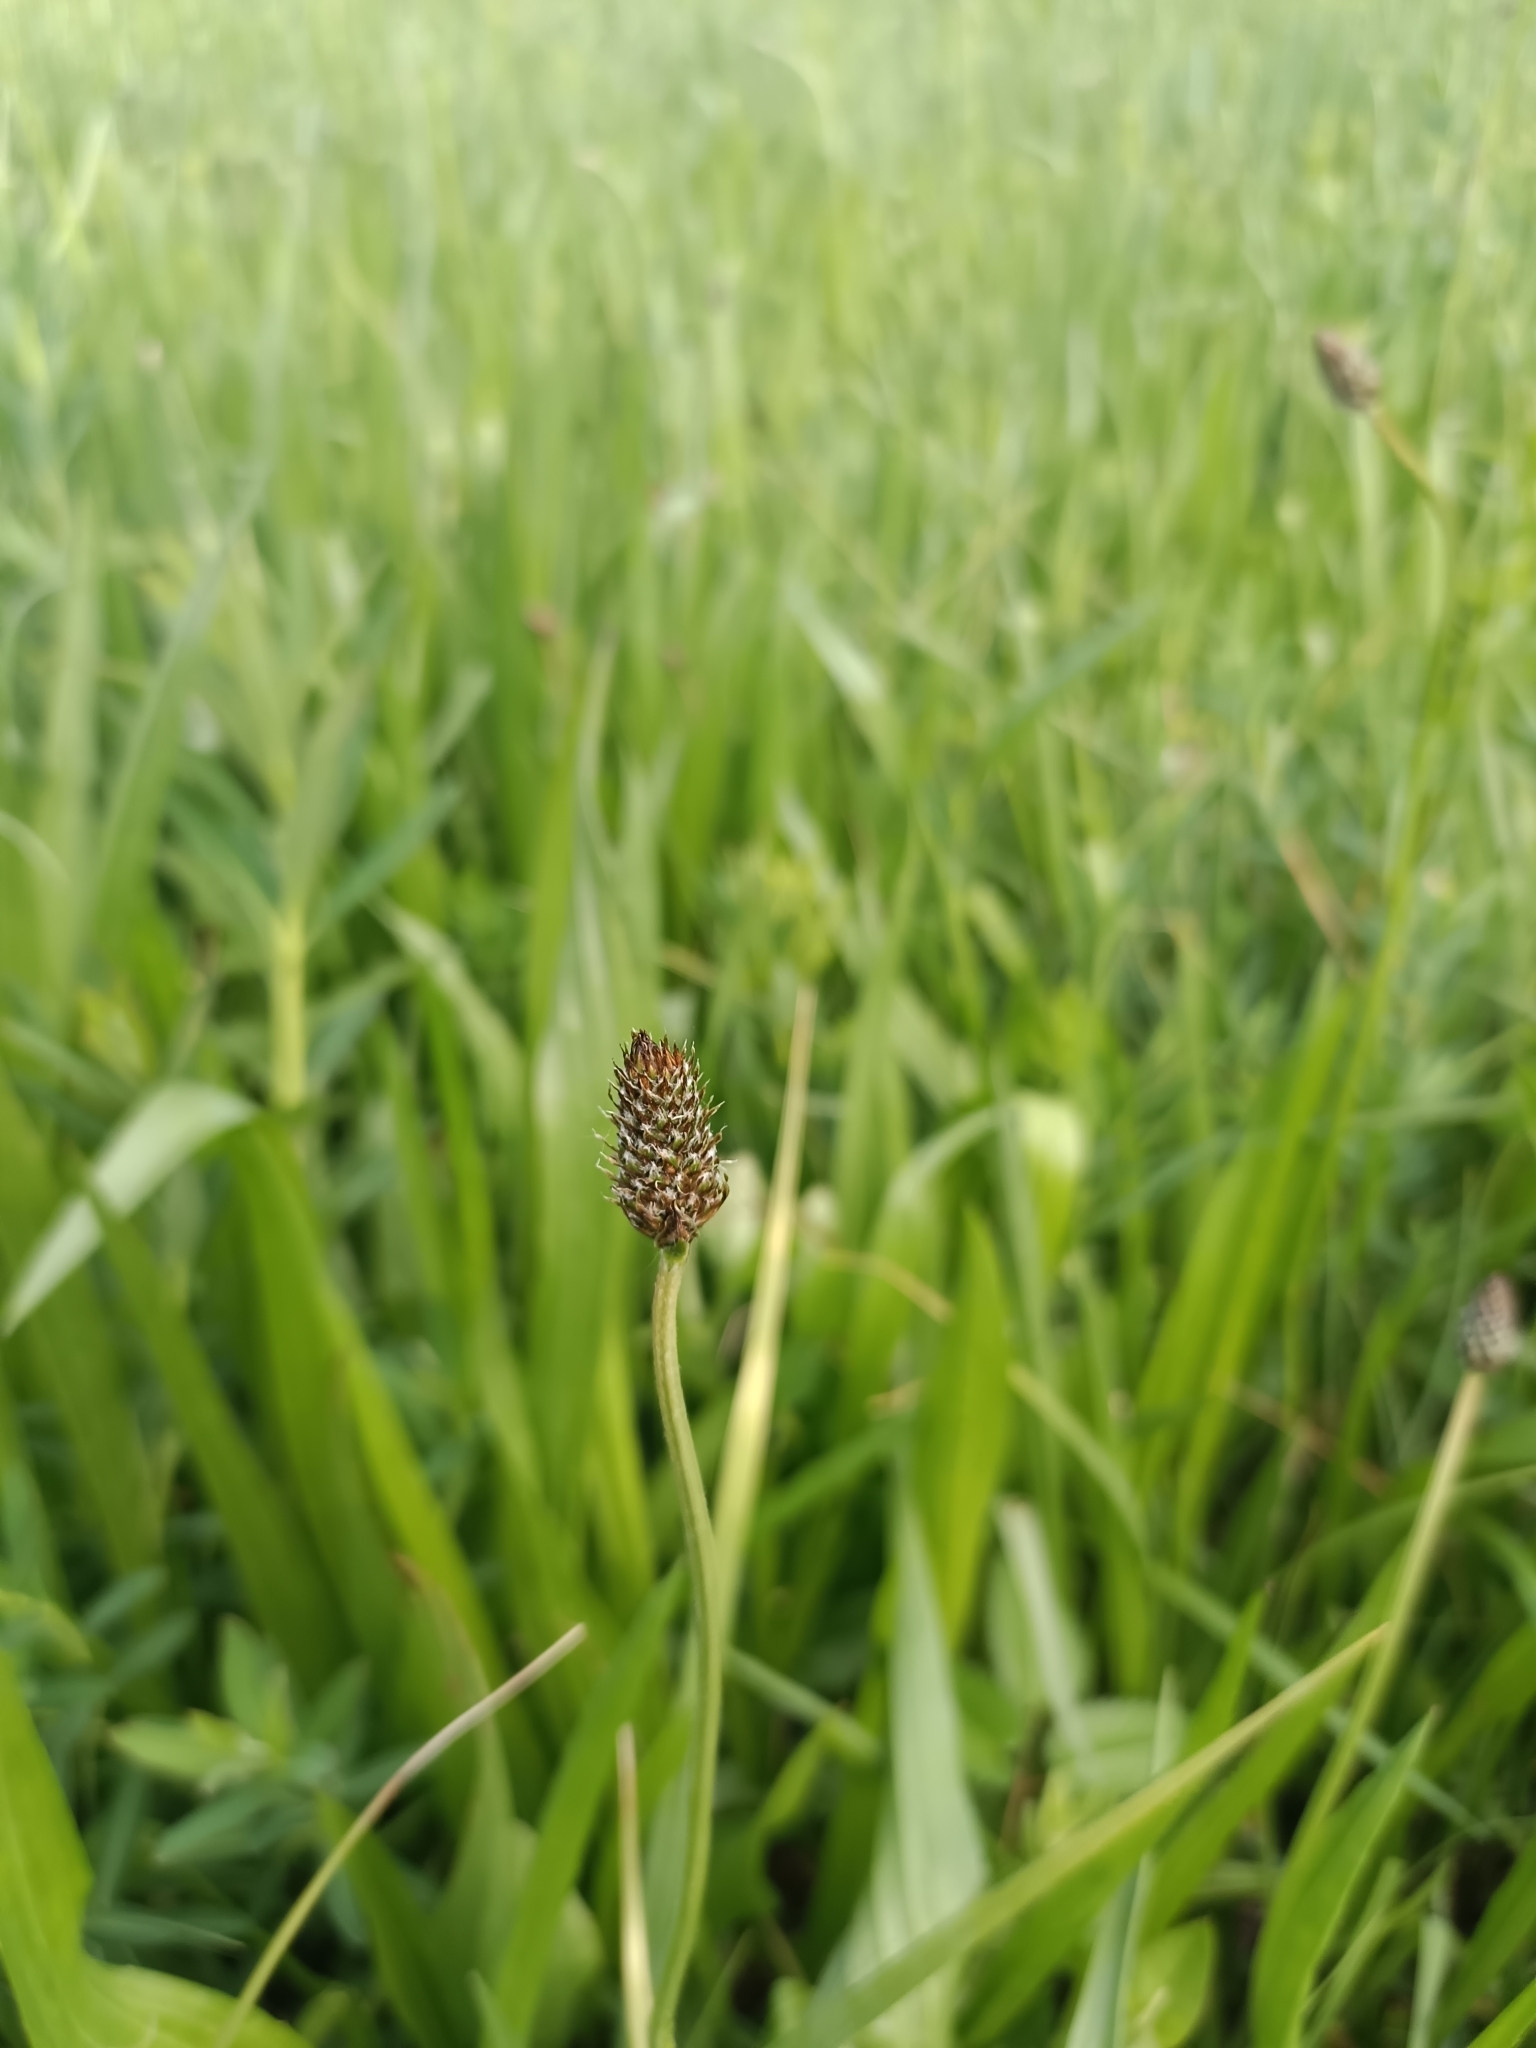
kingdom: Plantae
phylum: Tracheophyta
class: Magnoliopsida
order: Lamiales
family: Plantaginaceae
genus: Plantago
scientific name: Plantago altissima
